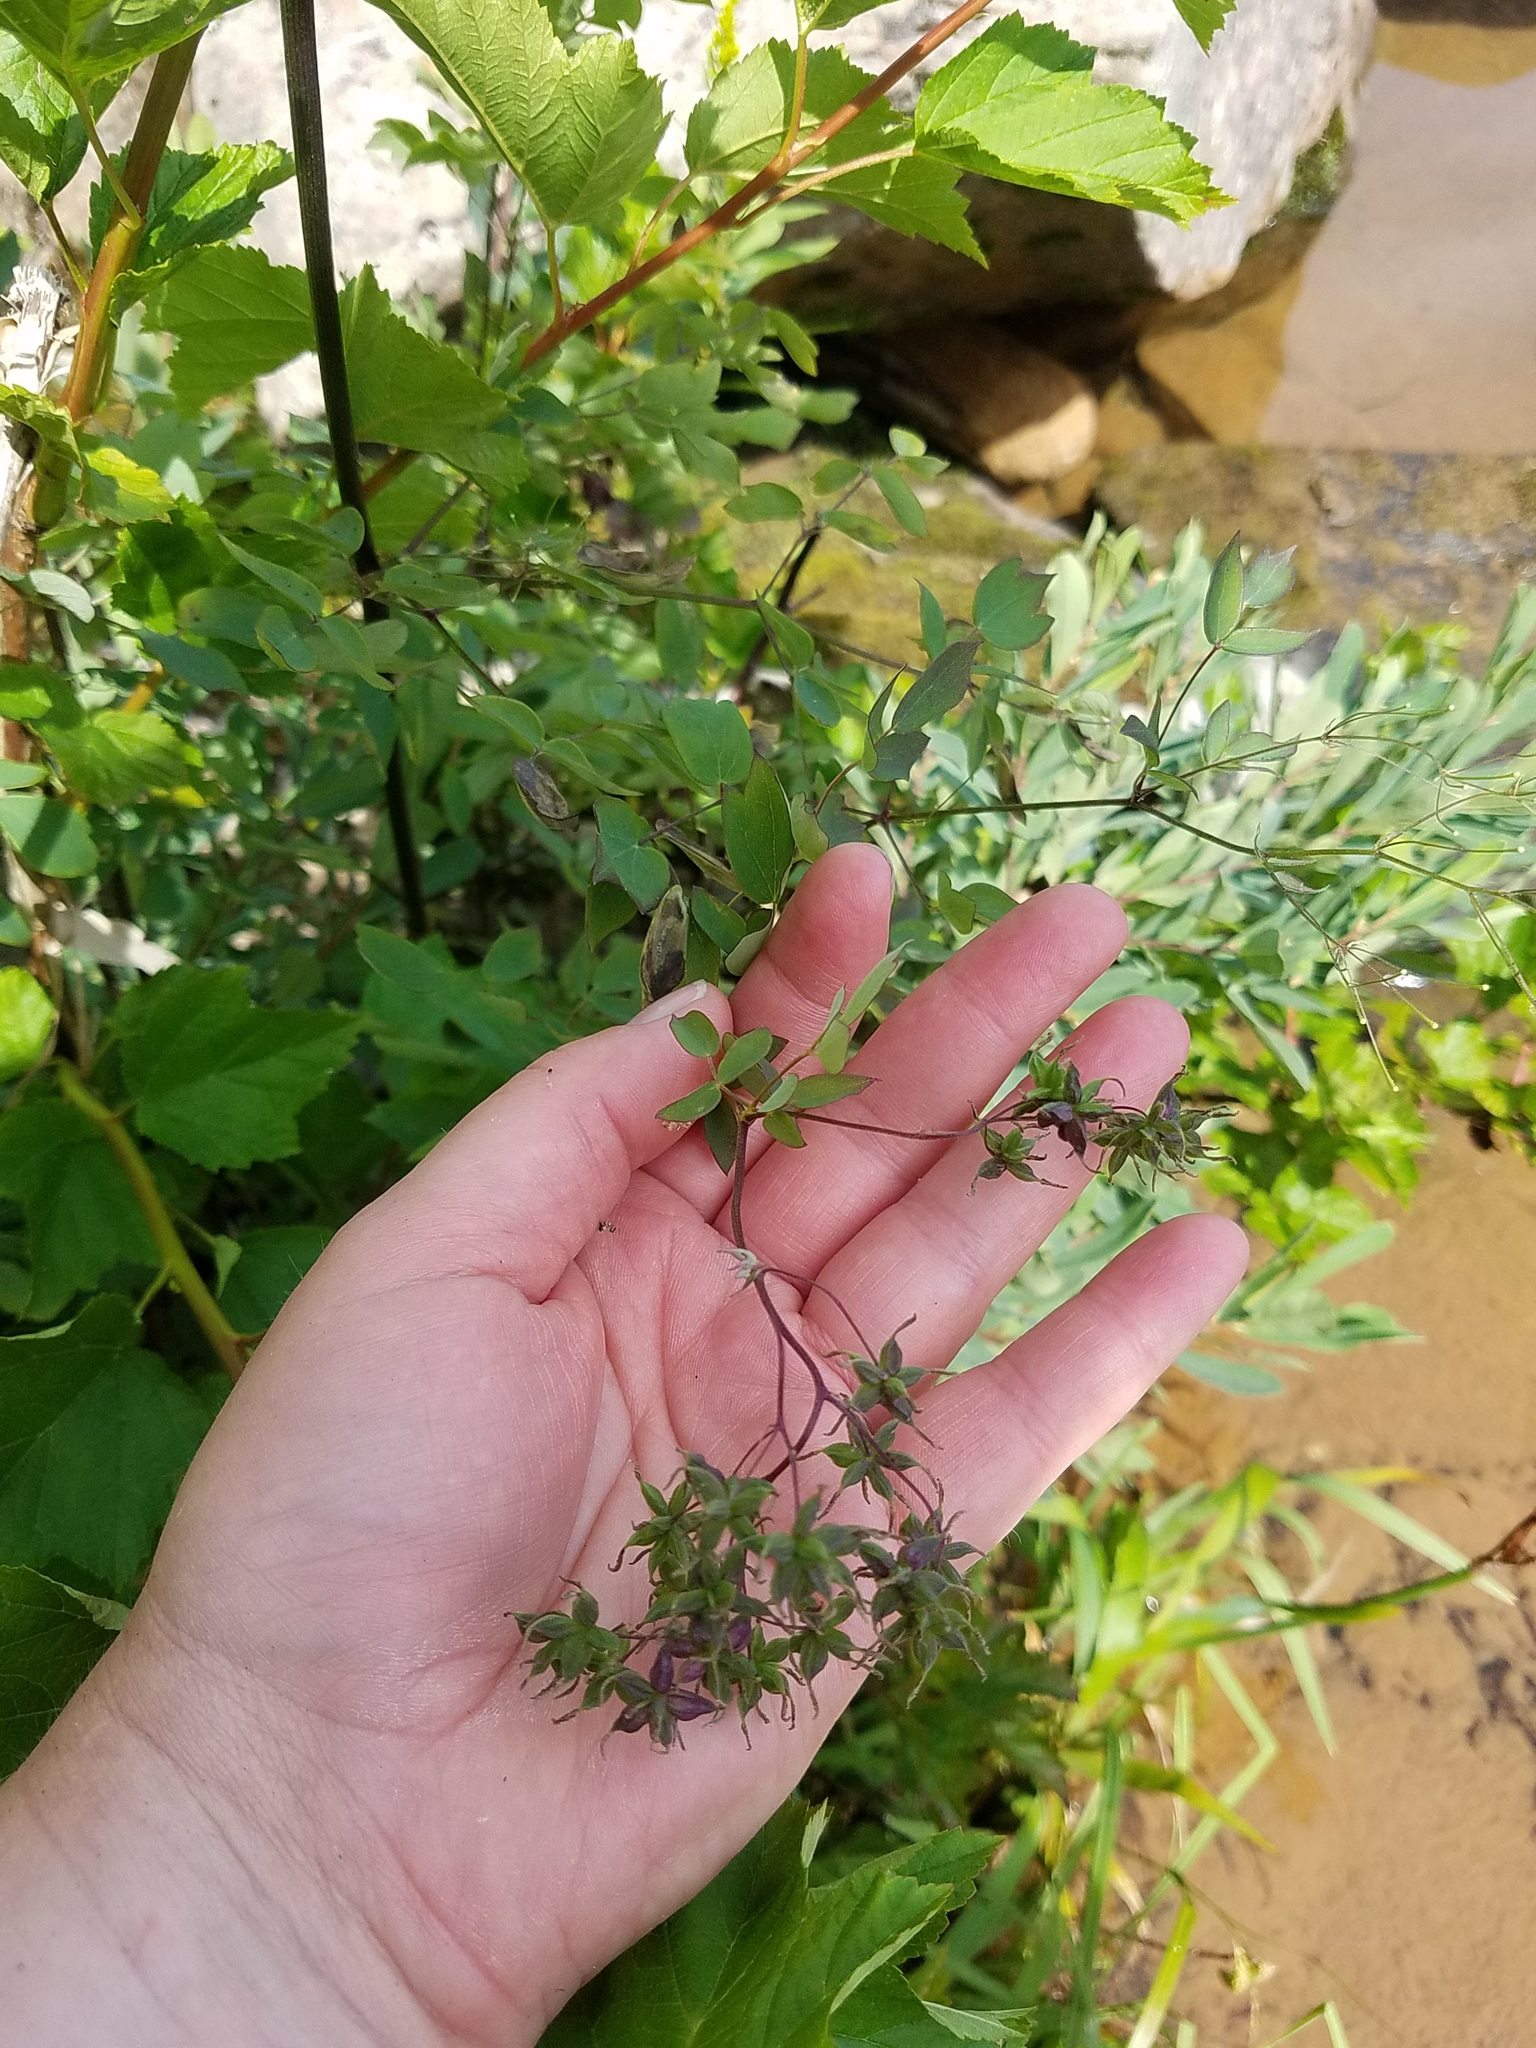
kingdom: Plantae
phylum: Tracheophyta
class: Magnoliopsida
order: Ranunculales
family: Ranunculaceae
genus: Thalictrum
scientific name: Thalictrum dasycarpum
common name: Purple meadow-rue
